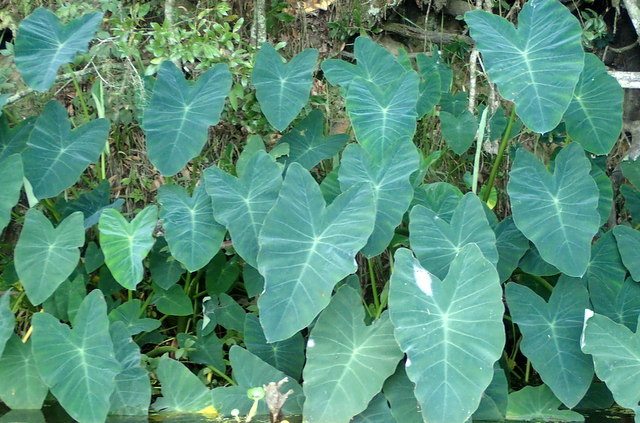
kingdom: Plantae
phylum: Tracheophyta
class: Liliopsida
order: Alismatales
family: Araceae
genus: Colocasia
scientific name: Colocasia esculenta
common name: Taro
